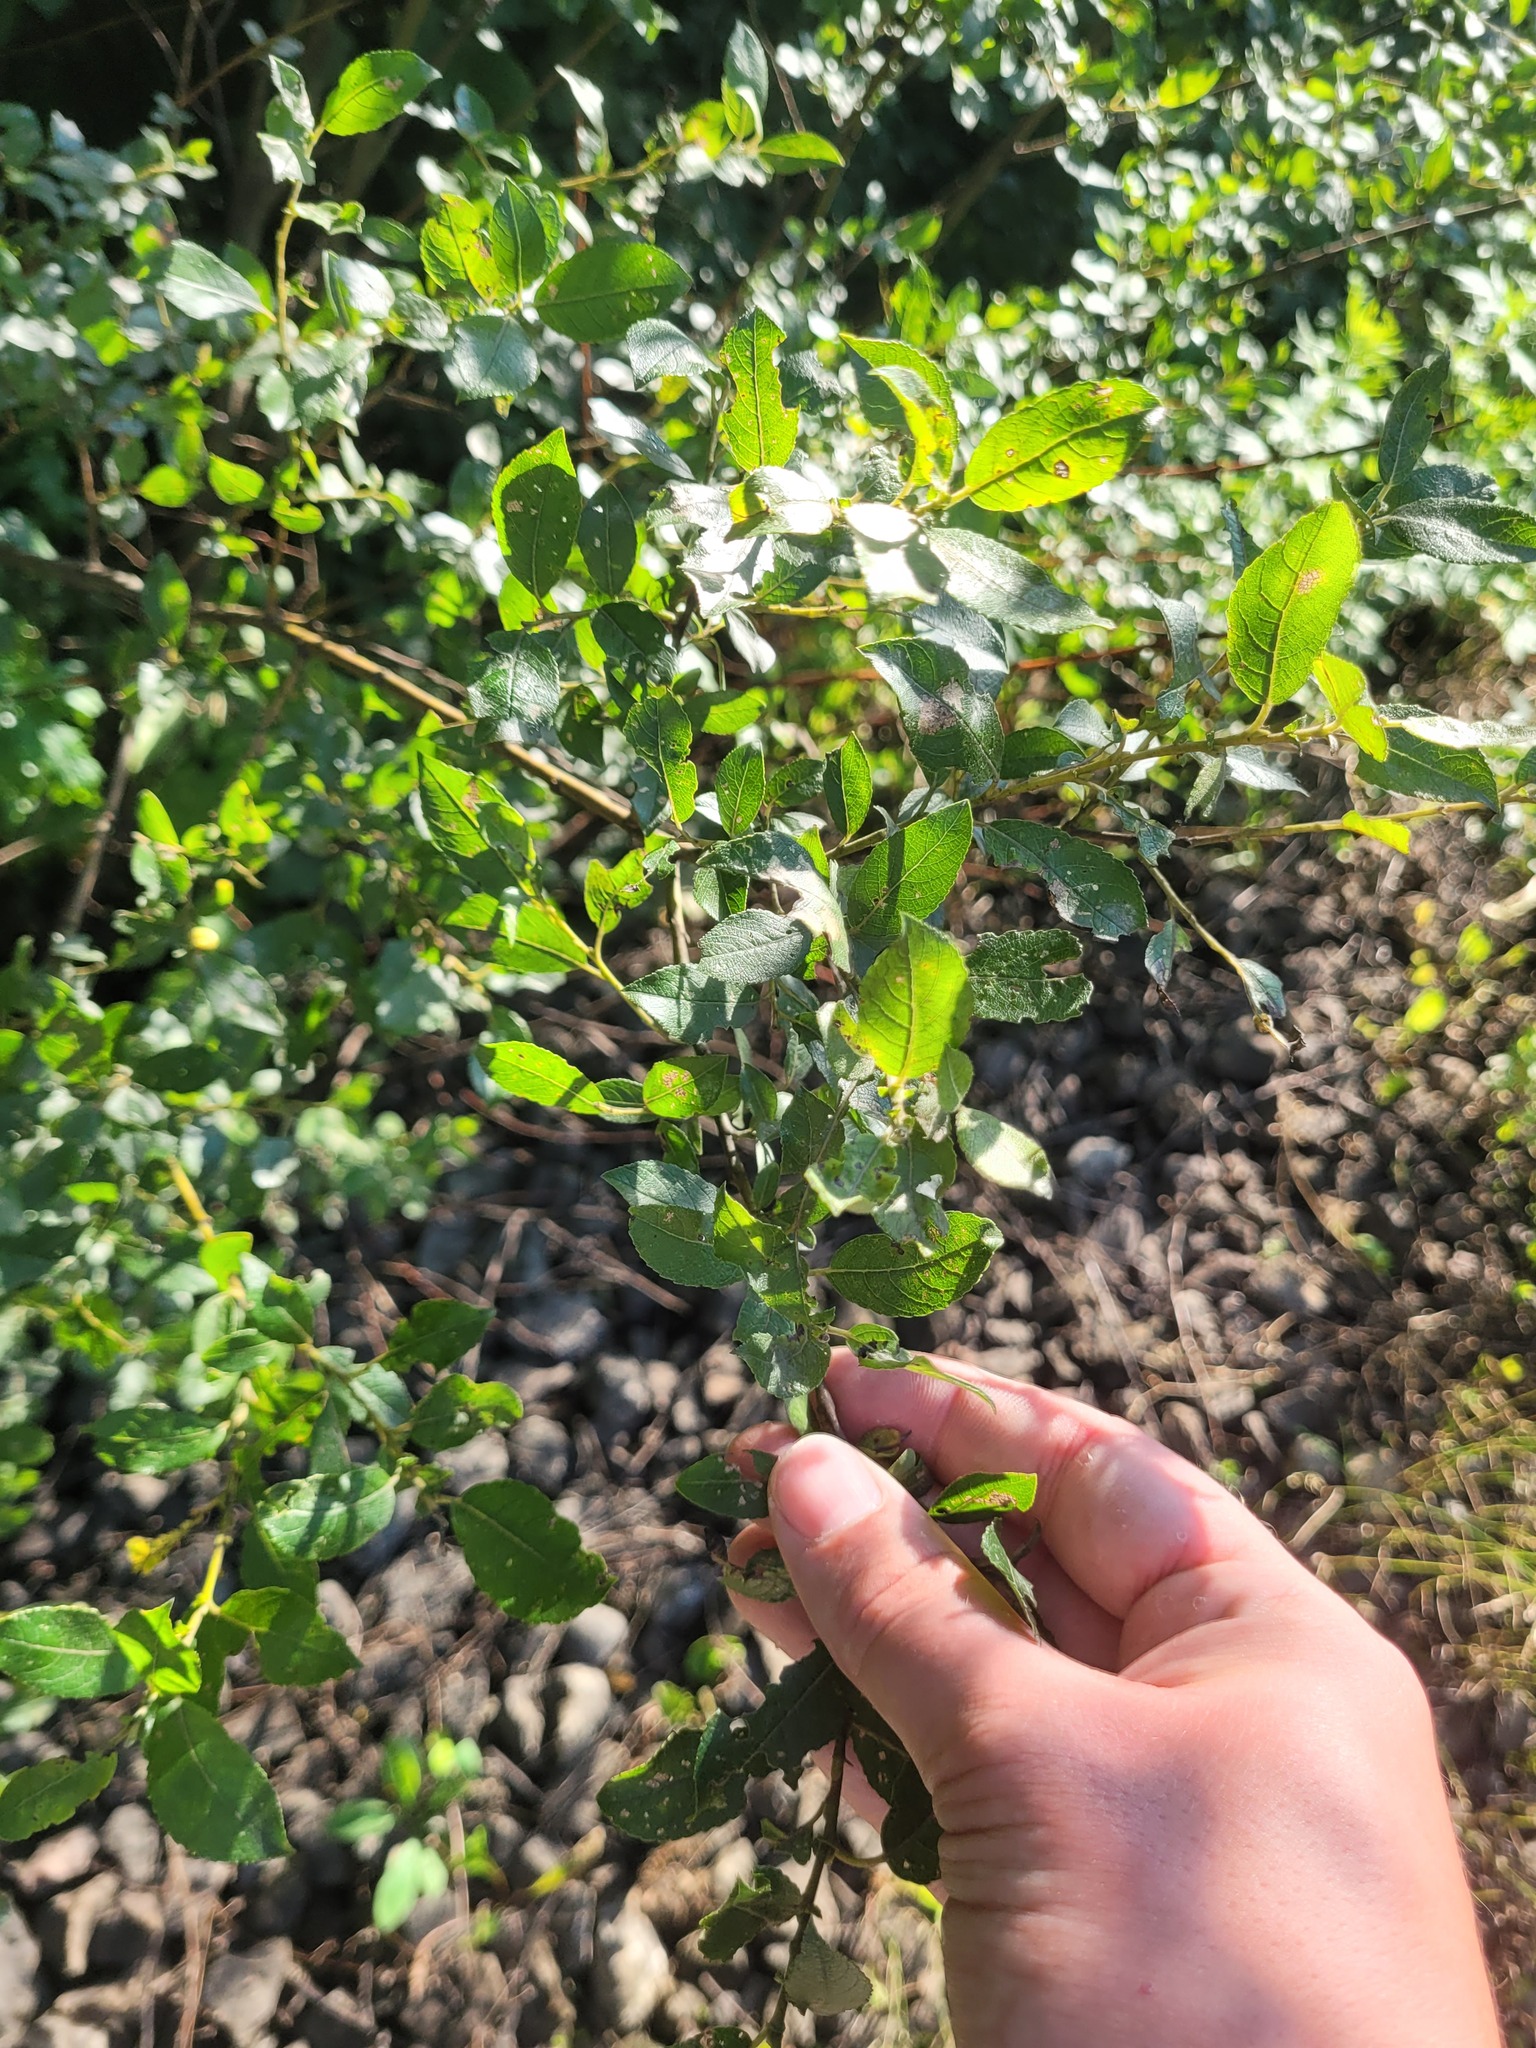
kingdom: Plantae
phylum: Tracheophyta
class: Magnoliopsida
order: Malpighiales
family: Salicaceae
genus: Salix
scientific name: Salix myrsinifolia
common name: Dark-leaved willow
